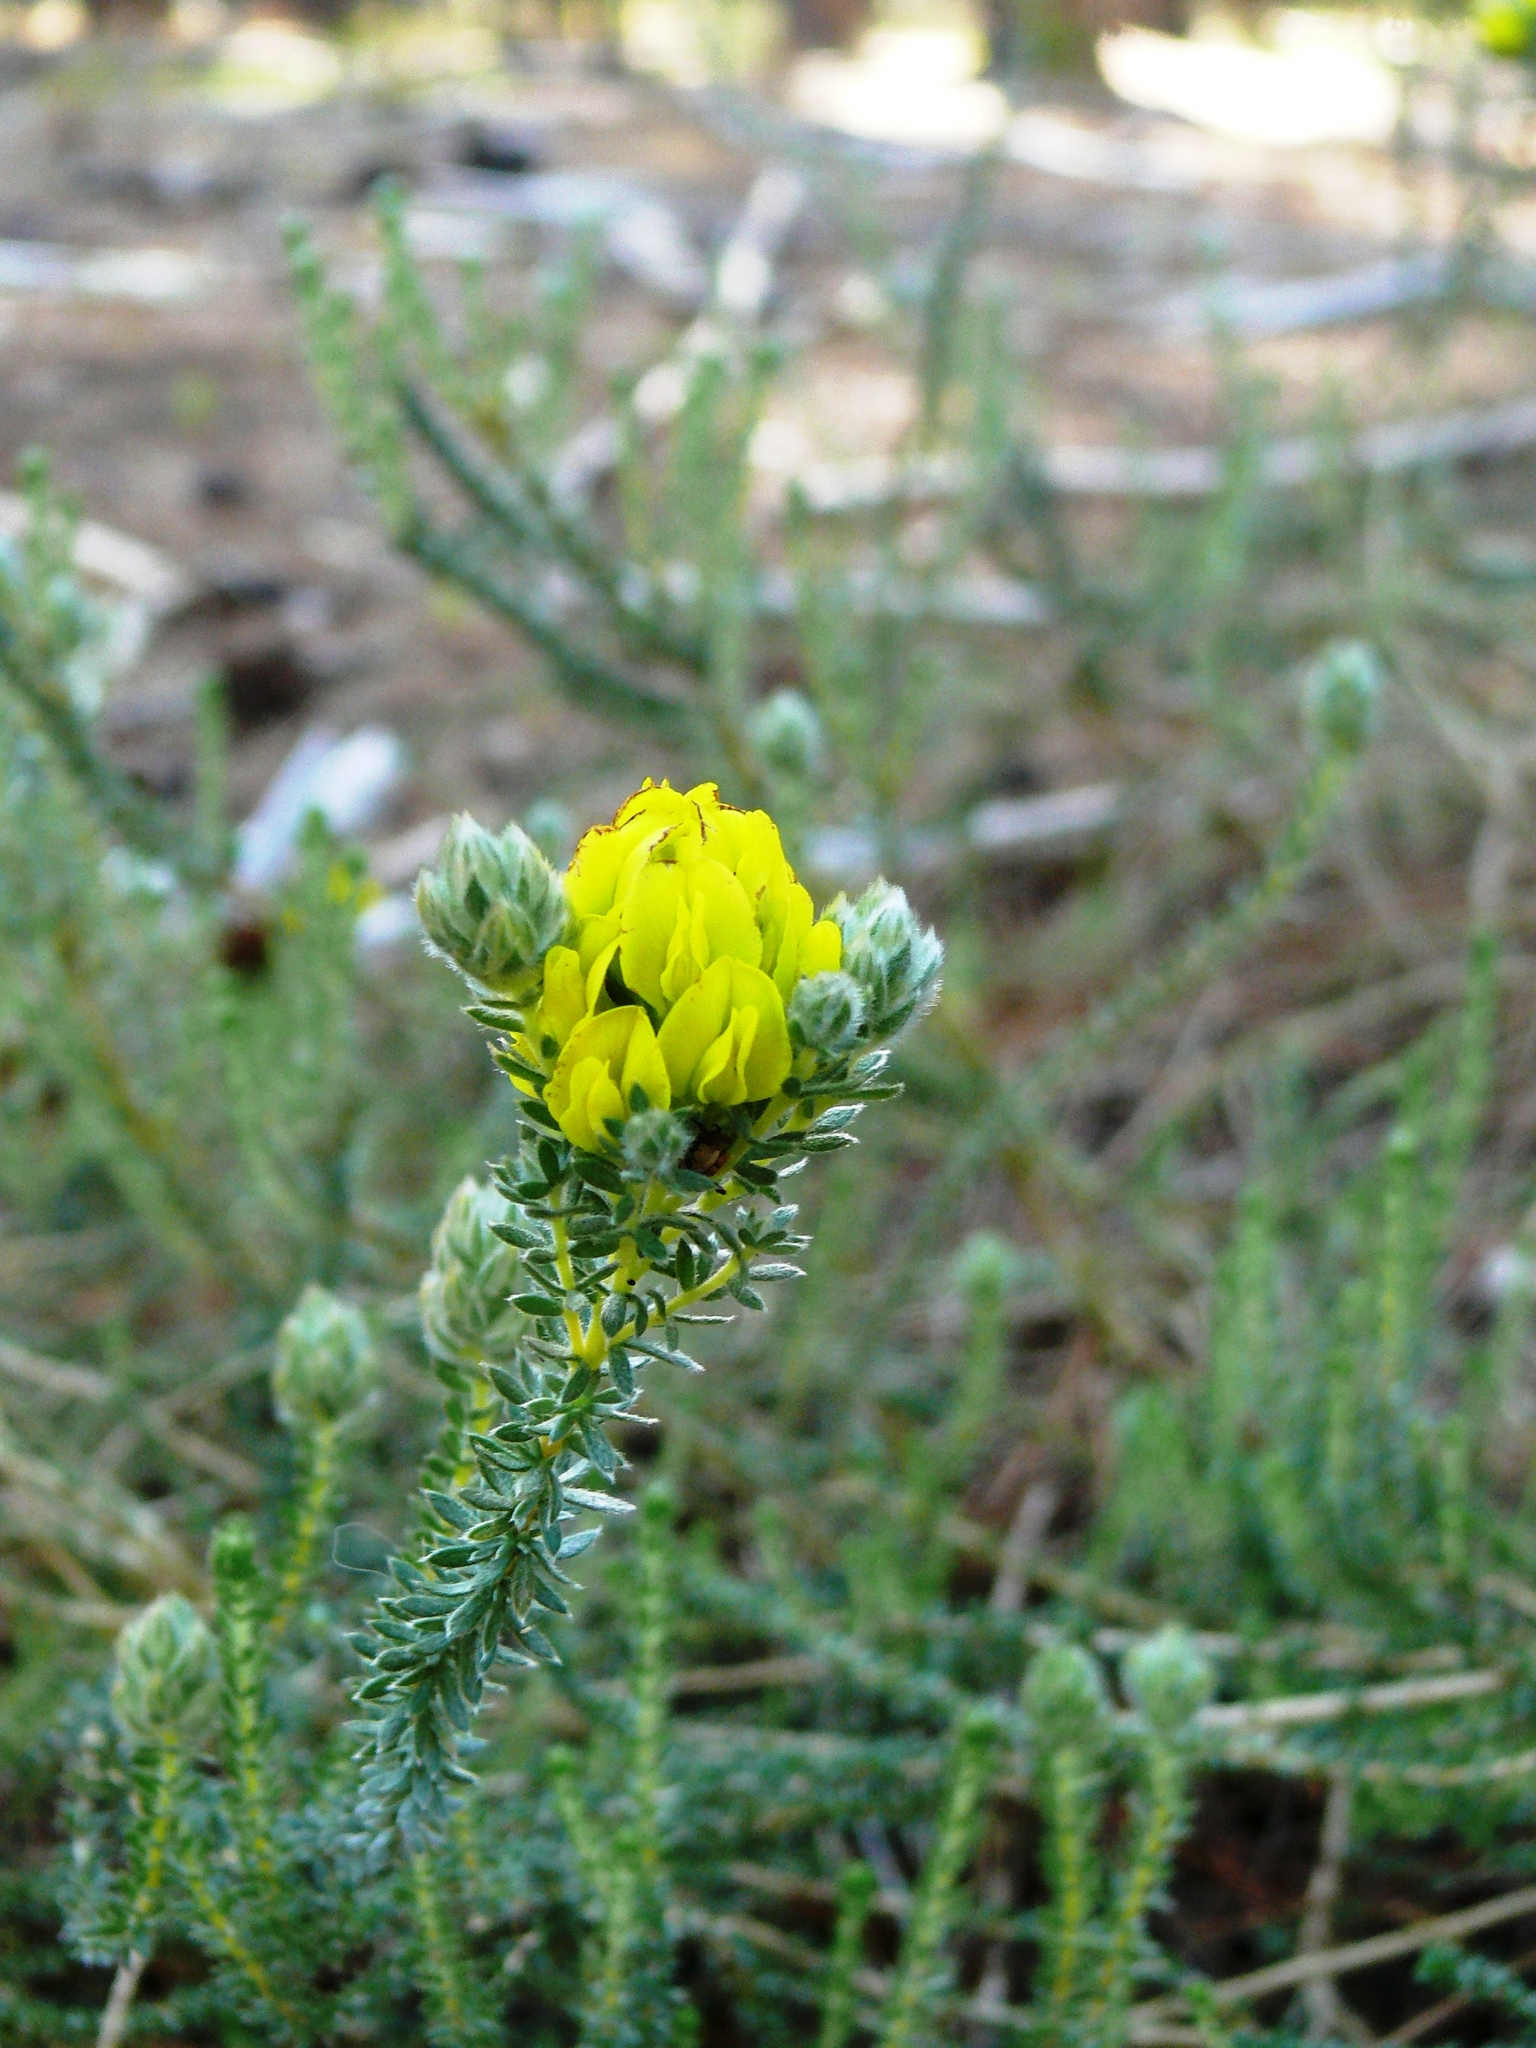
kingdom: Plantae
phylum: Tracheophyta
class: Magnoliopsida
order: Fabales
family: Fabaceae
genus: Aspalathus
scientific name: Aspalathus quinquefolia
